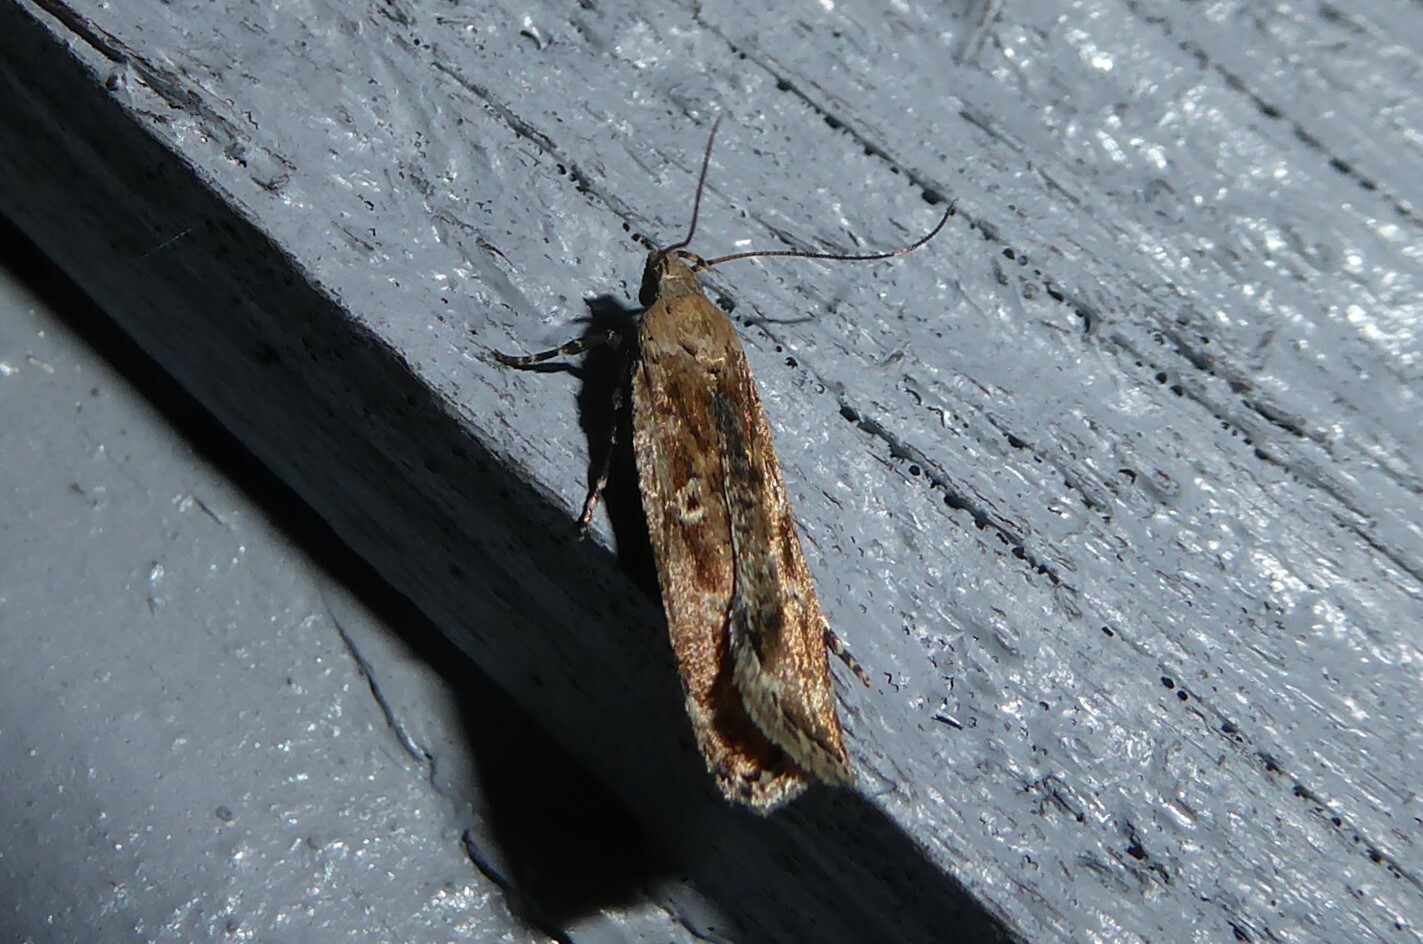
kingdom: Animalia
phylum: Arthropoda
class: Insecta
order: Lepidoptera
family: Gelechiidae
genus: Anisoplaca
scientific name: Anisoplaca achyrota
